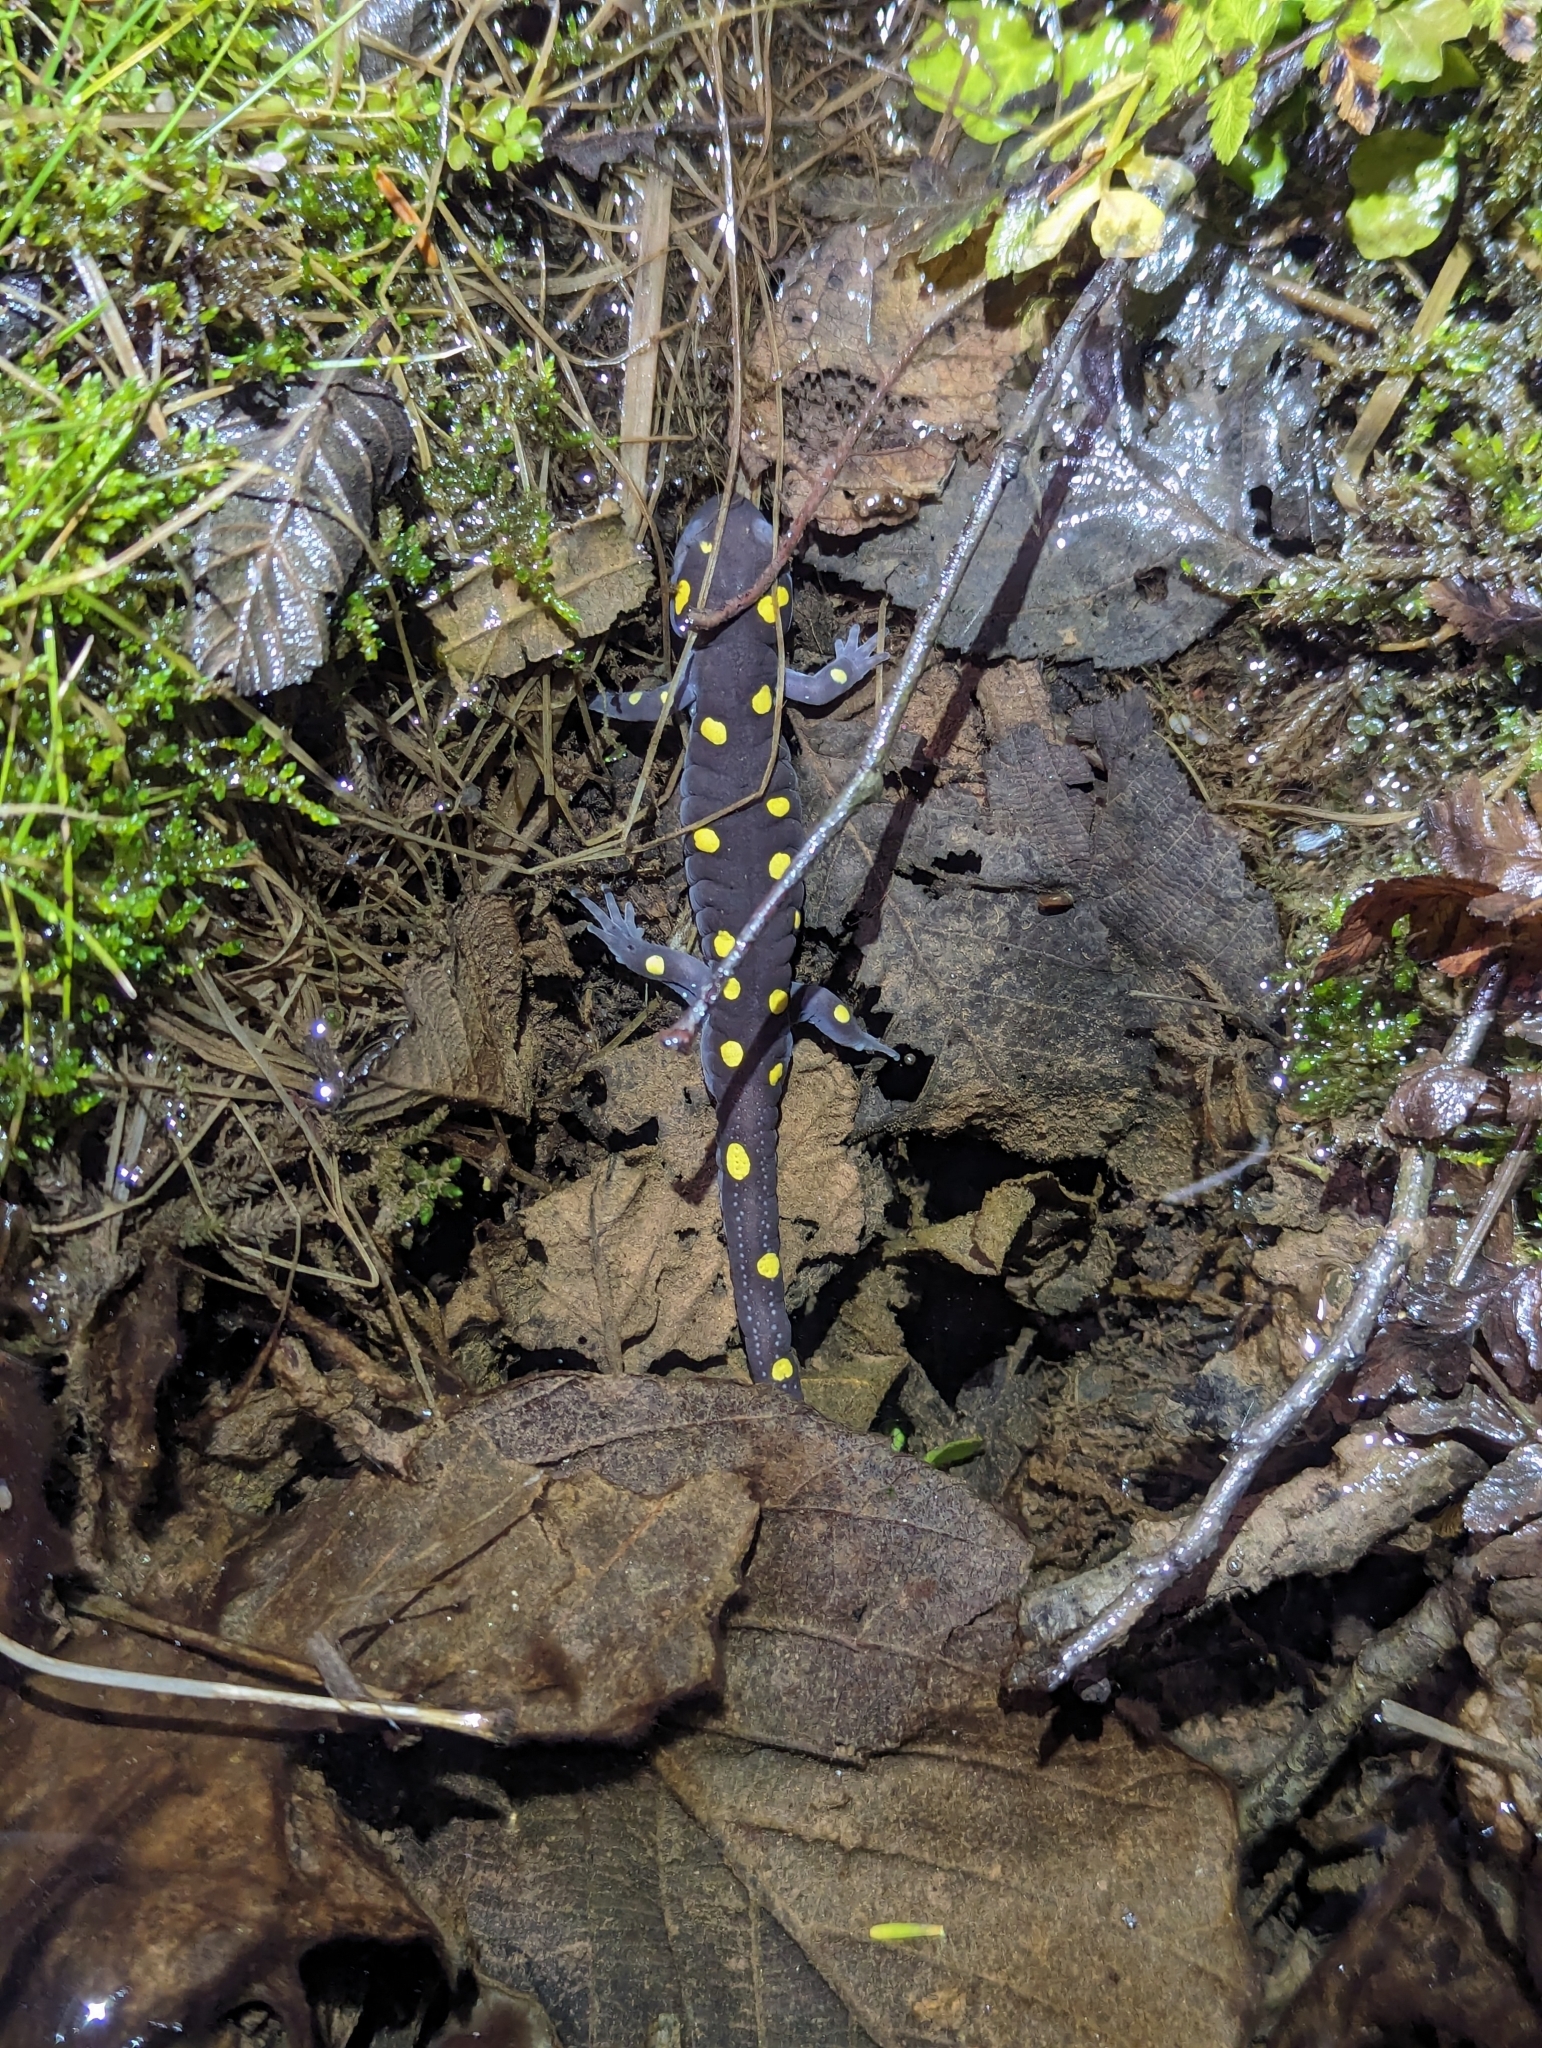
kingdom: Animalia
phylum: Chordata
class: Amphibia
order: Caudata
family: Ambystomatidae
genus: Ambystoma
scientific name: Ambystoma maculatum
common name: Spotted salamander
